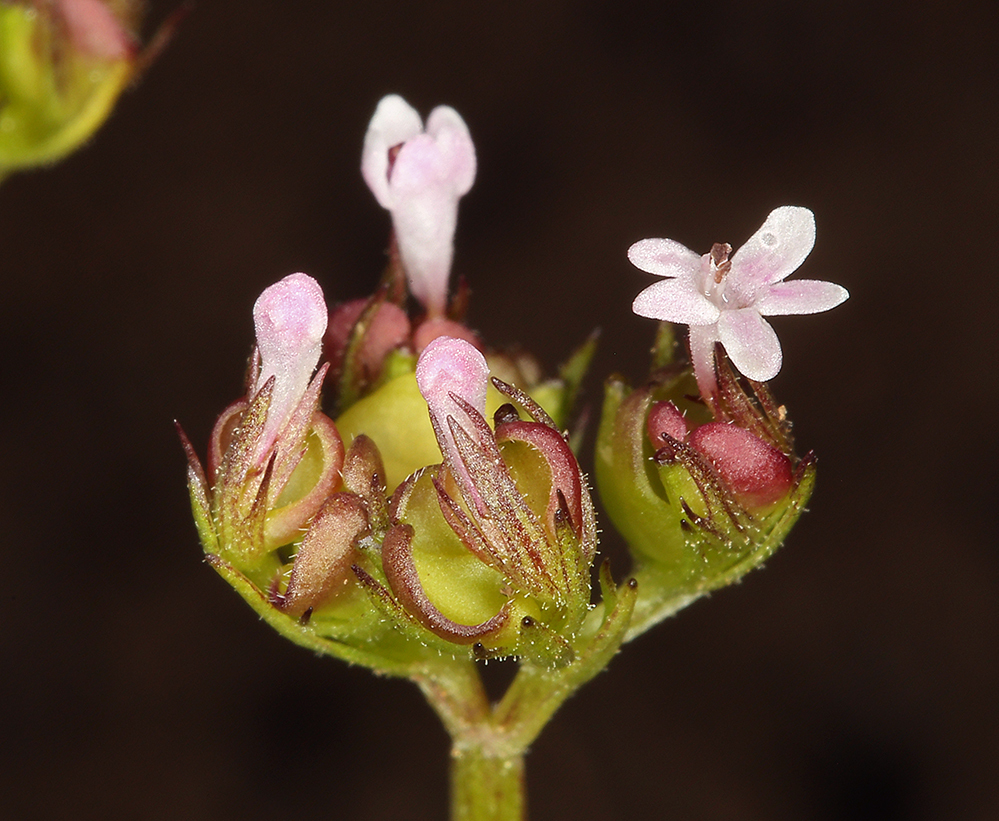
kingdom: Plantae
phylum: Tracheophyta
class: Magnoliopsida
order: Dipsacales
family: Caprifoliaceae
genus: Plectritis
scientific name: Plectritis brachystemon
